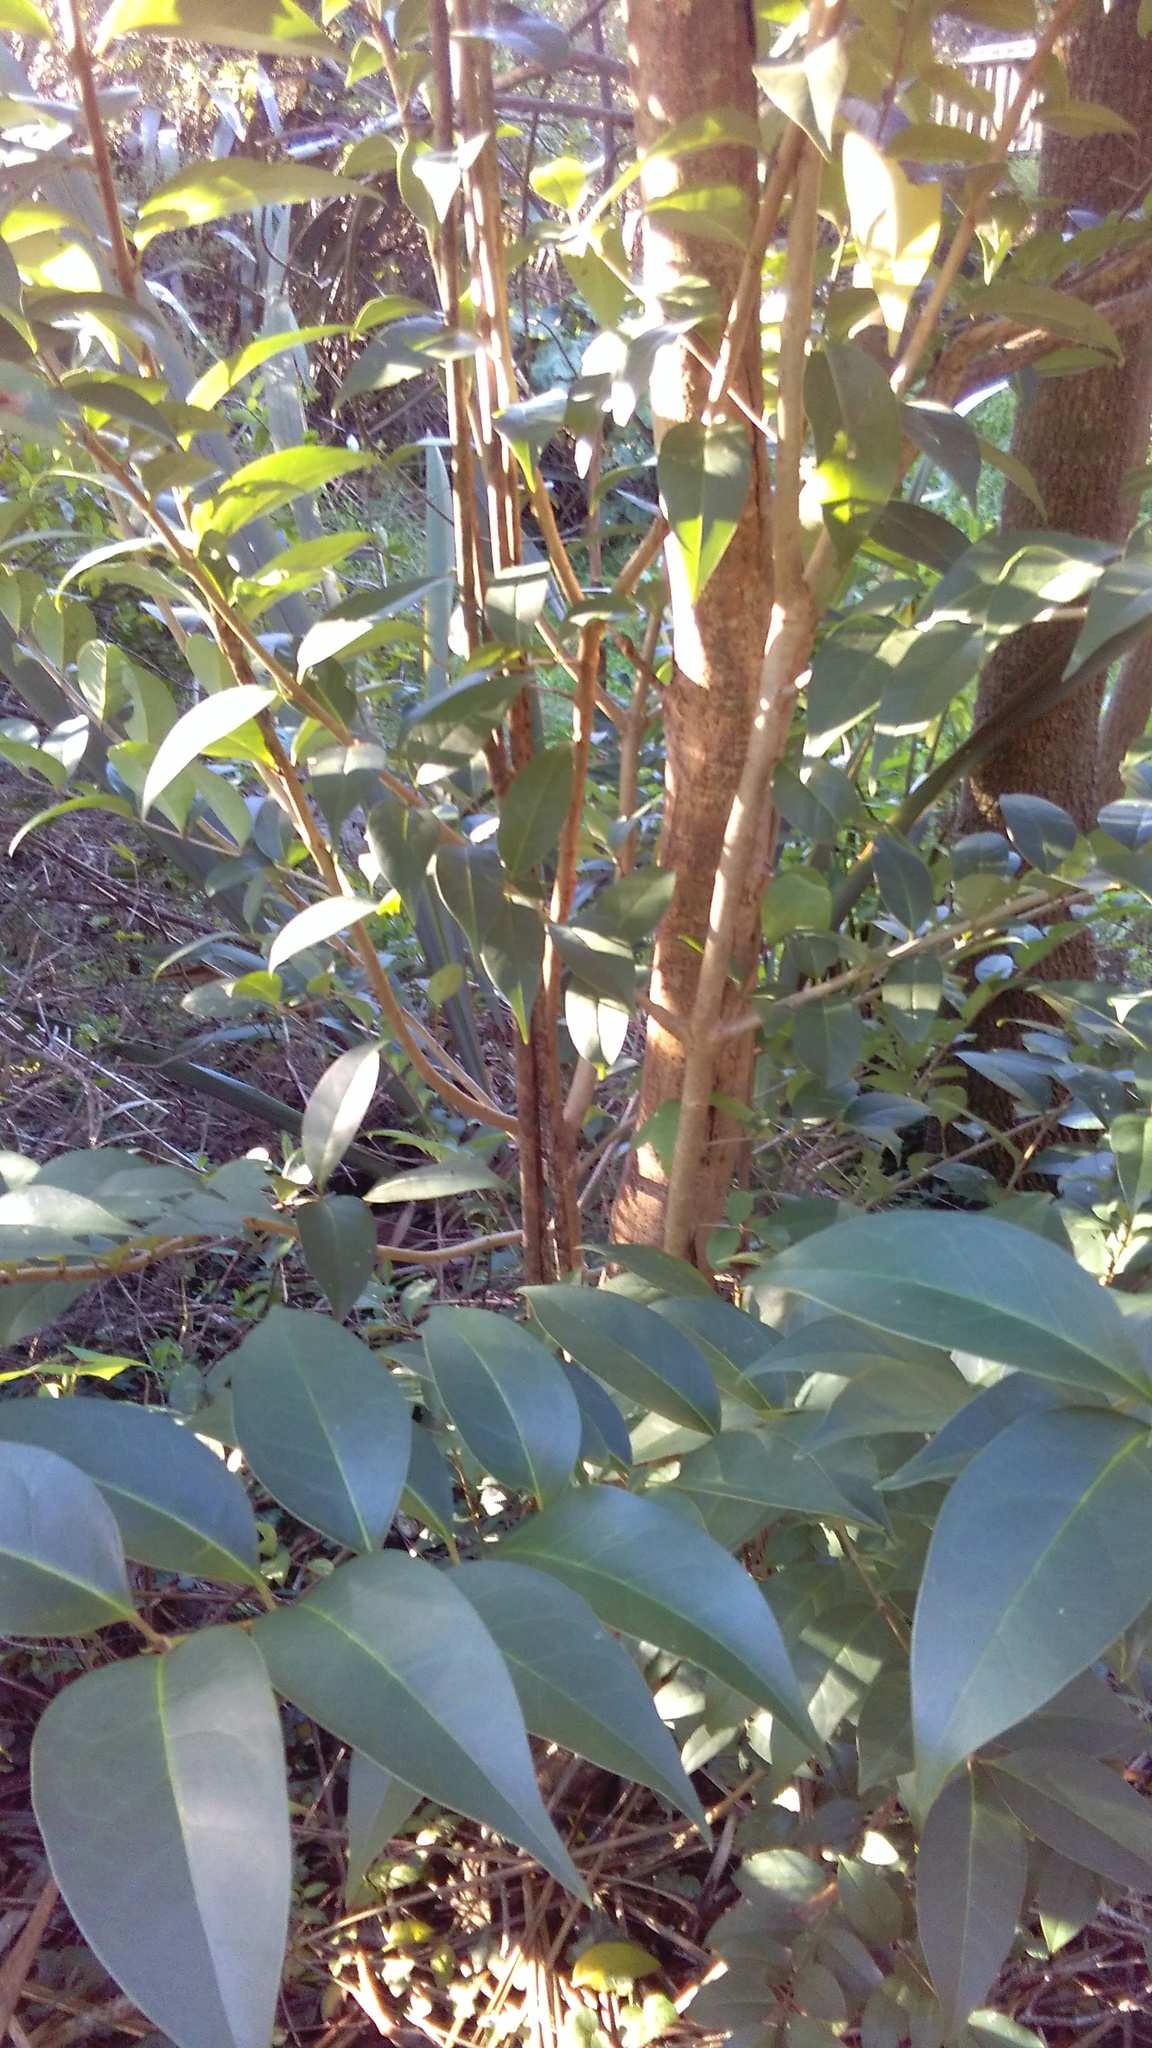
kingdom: Plantae
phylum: Tracheophyta
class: Magnoliopsida
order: Lamiales
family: Oleaceae
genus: Ligustrum
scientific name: Ligustrum lucidum
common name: Glossy privet
